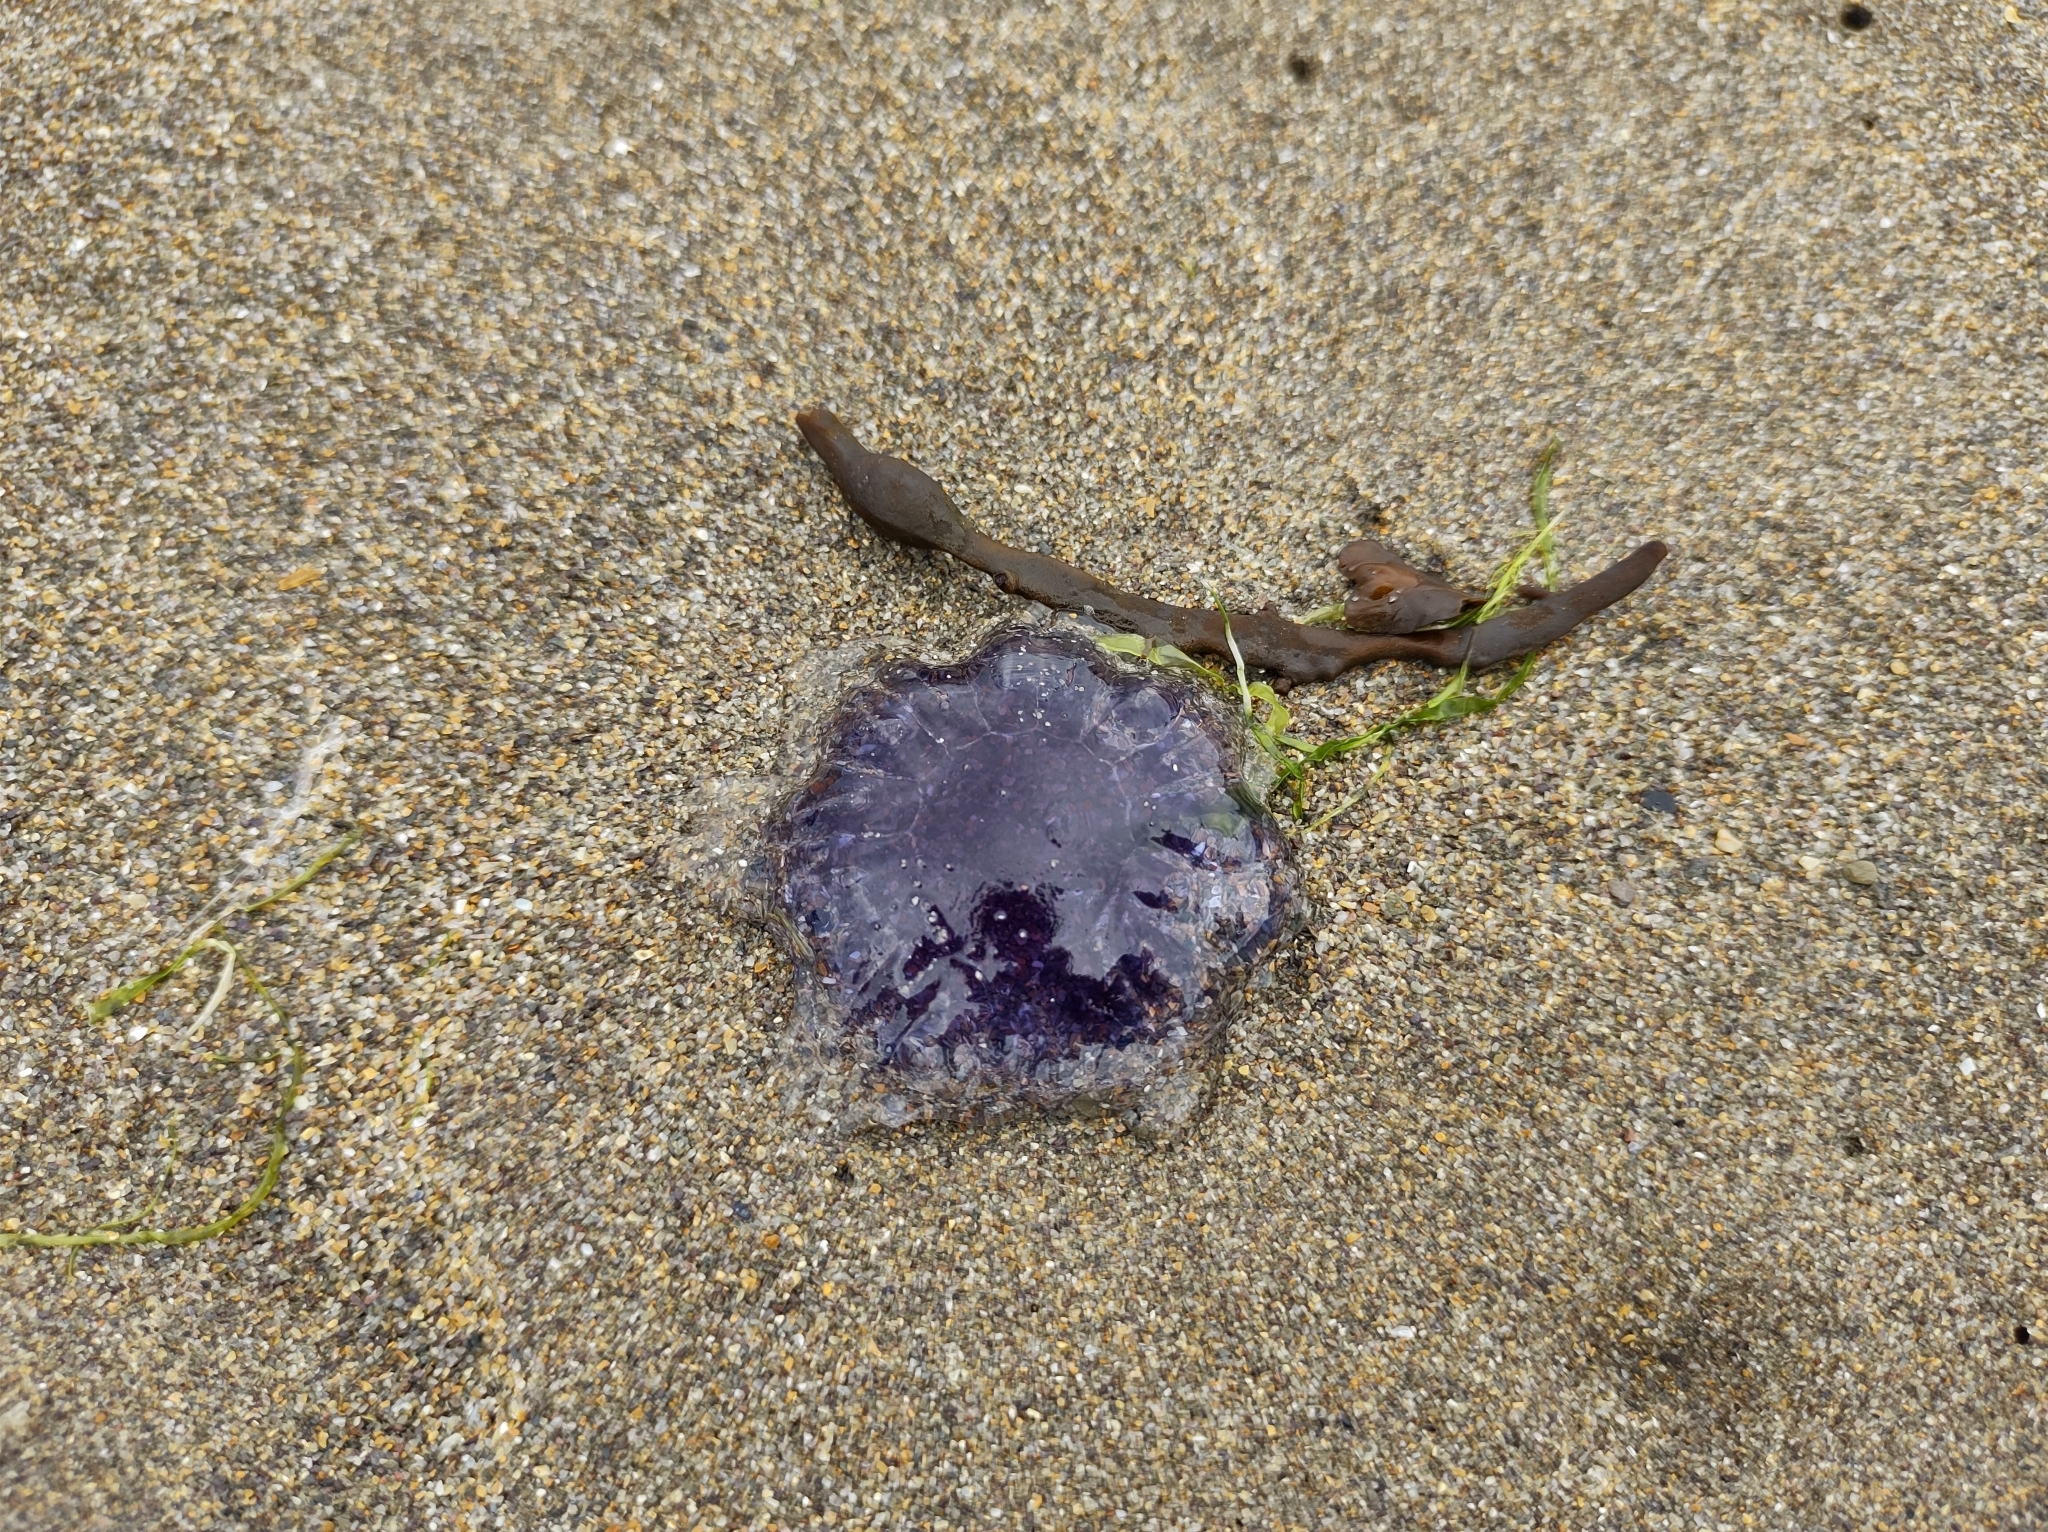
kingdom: Animalia
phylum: Cnidaria
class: Scyphozoa
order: Semaeostomeae
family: Cyaneidae
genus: Cyanea
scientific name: Cyanea lamarckii
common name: Blue jellyfish
